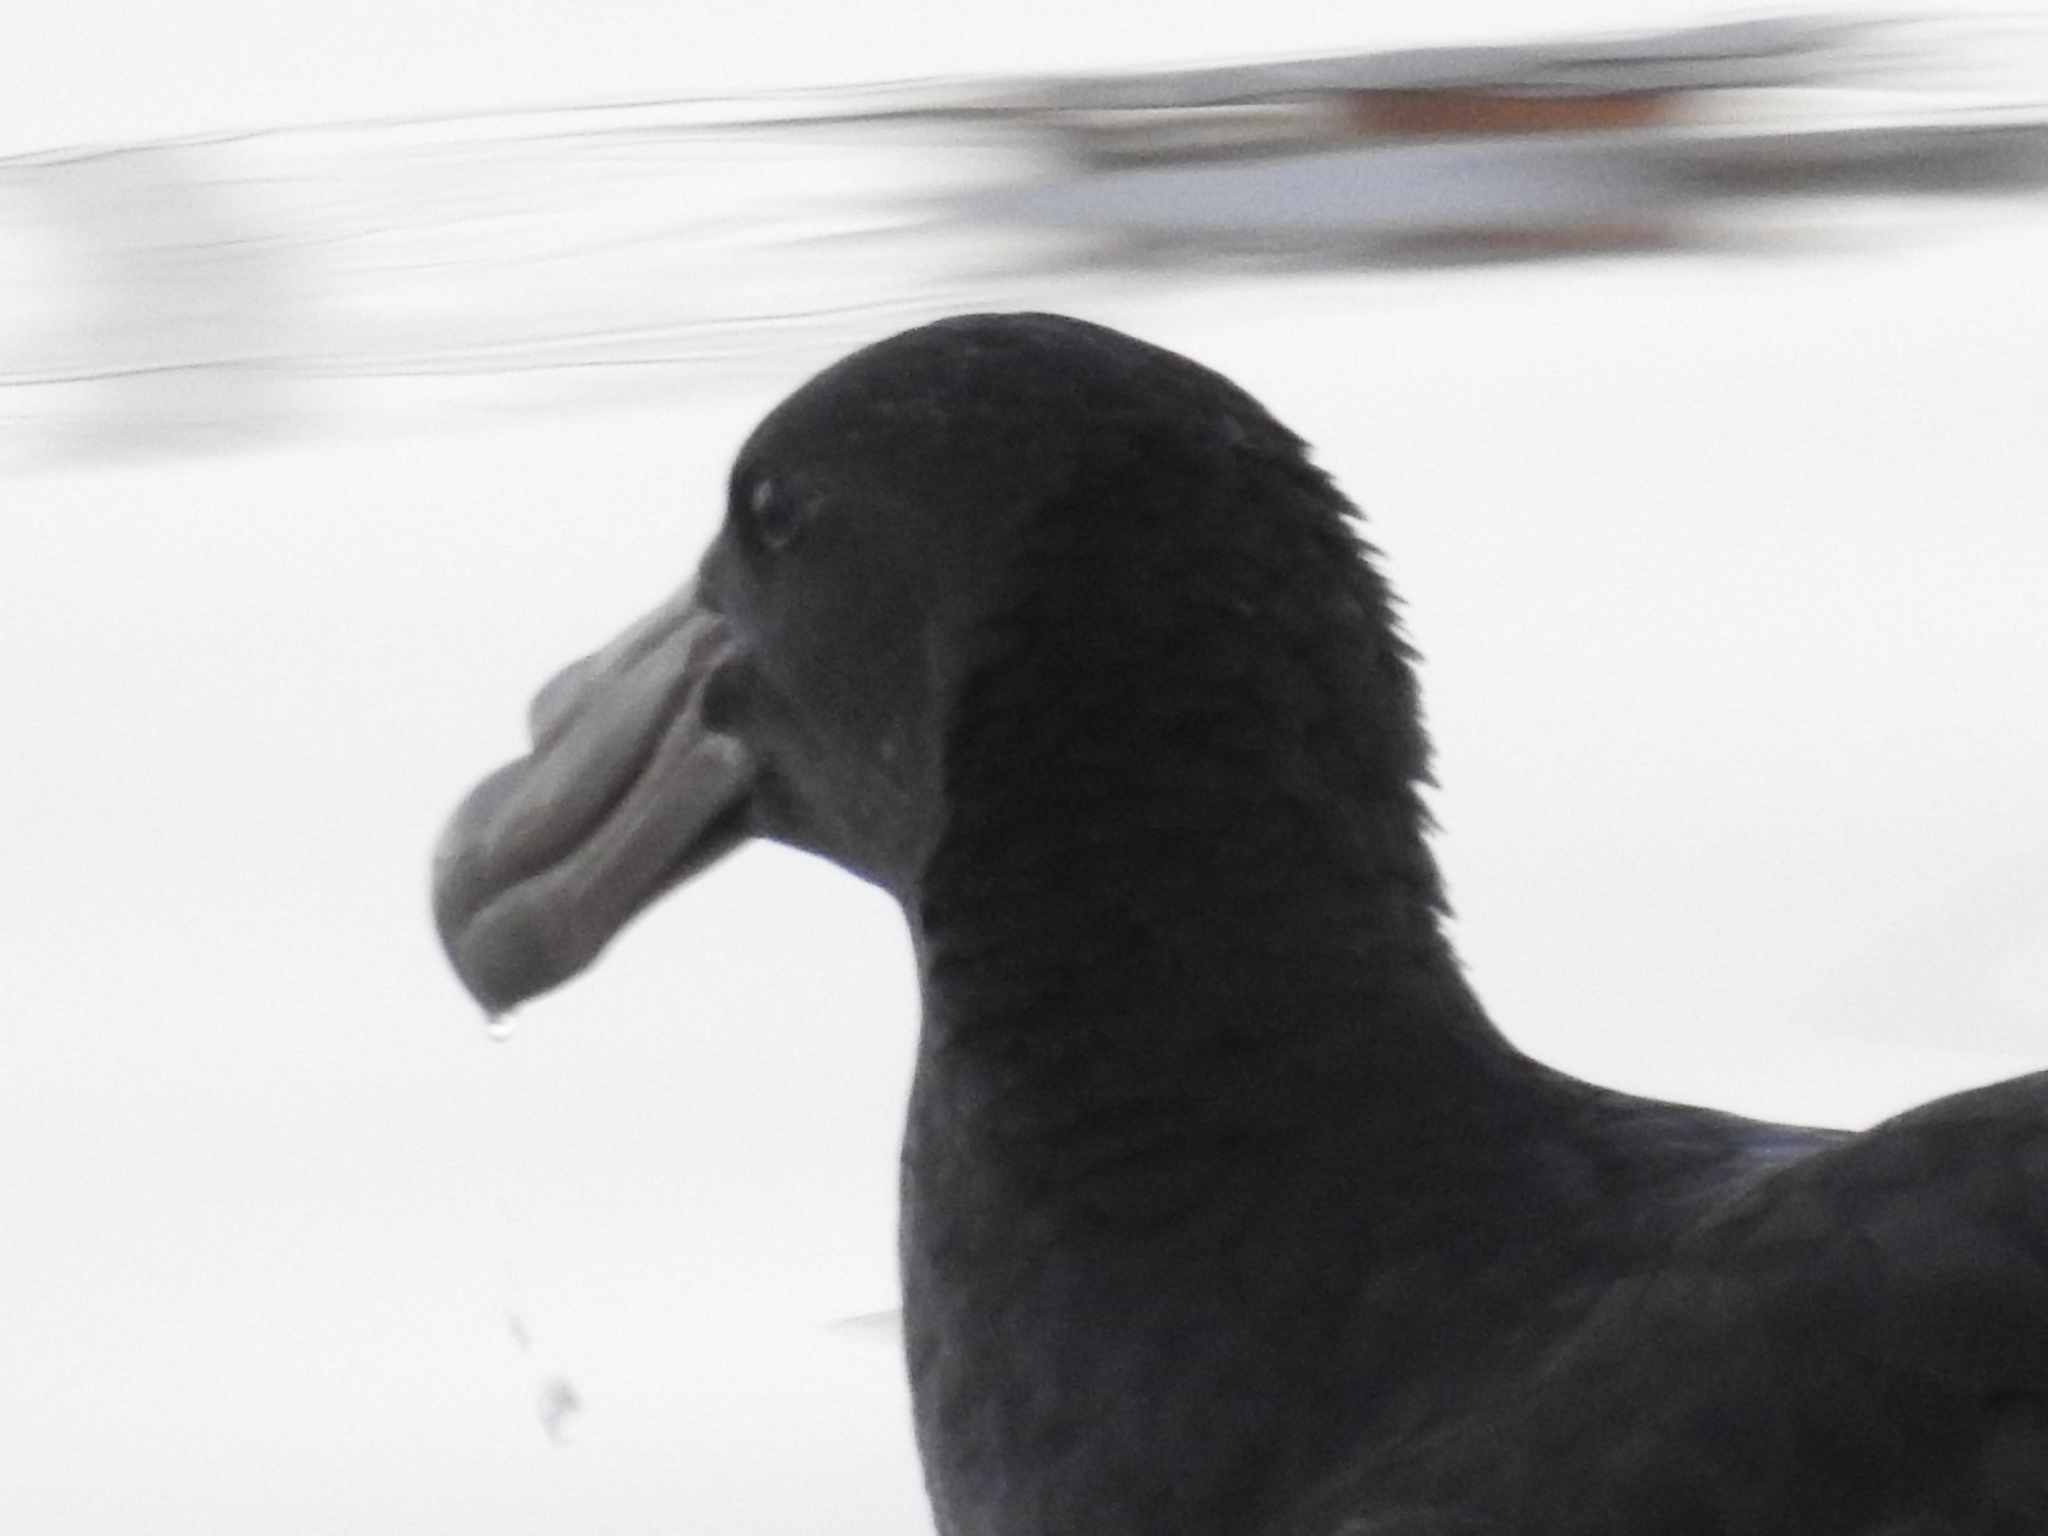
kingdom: Animalia
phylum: Chordata
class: Aves
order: Procellariiformes
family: Procellariidae
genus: Macronectes
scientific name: Macronectes giganteus
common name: Southern giant petrel
